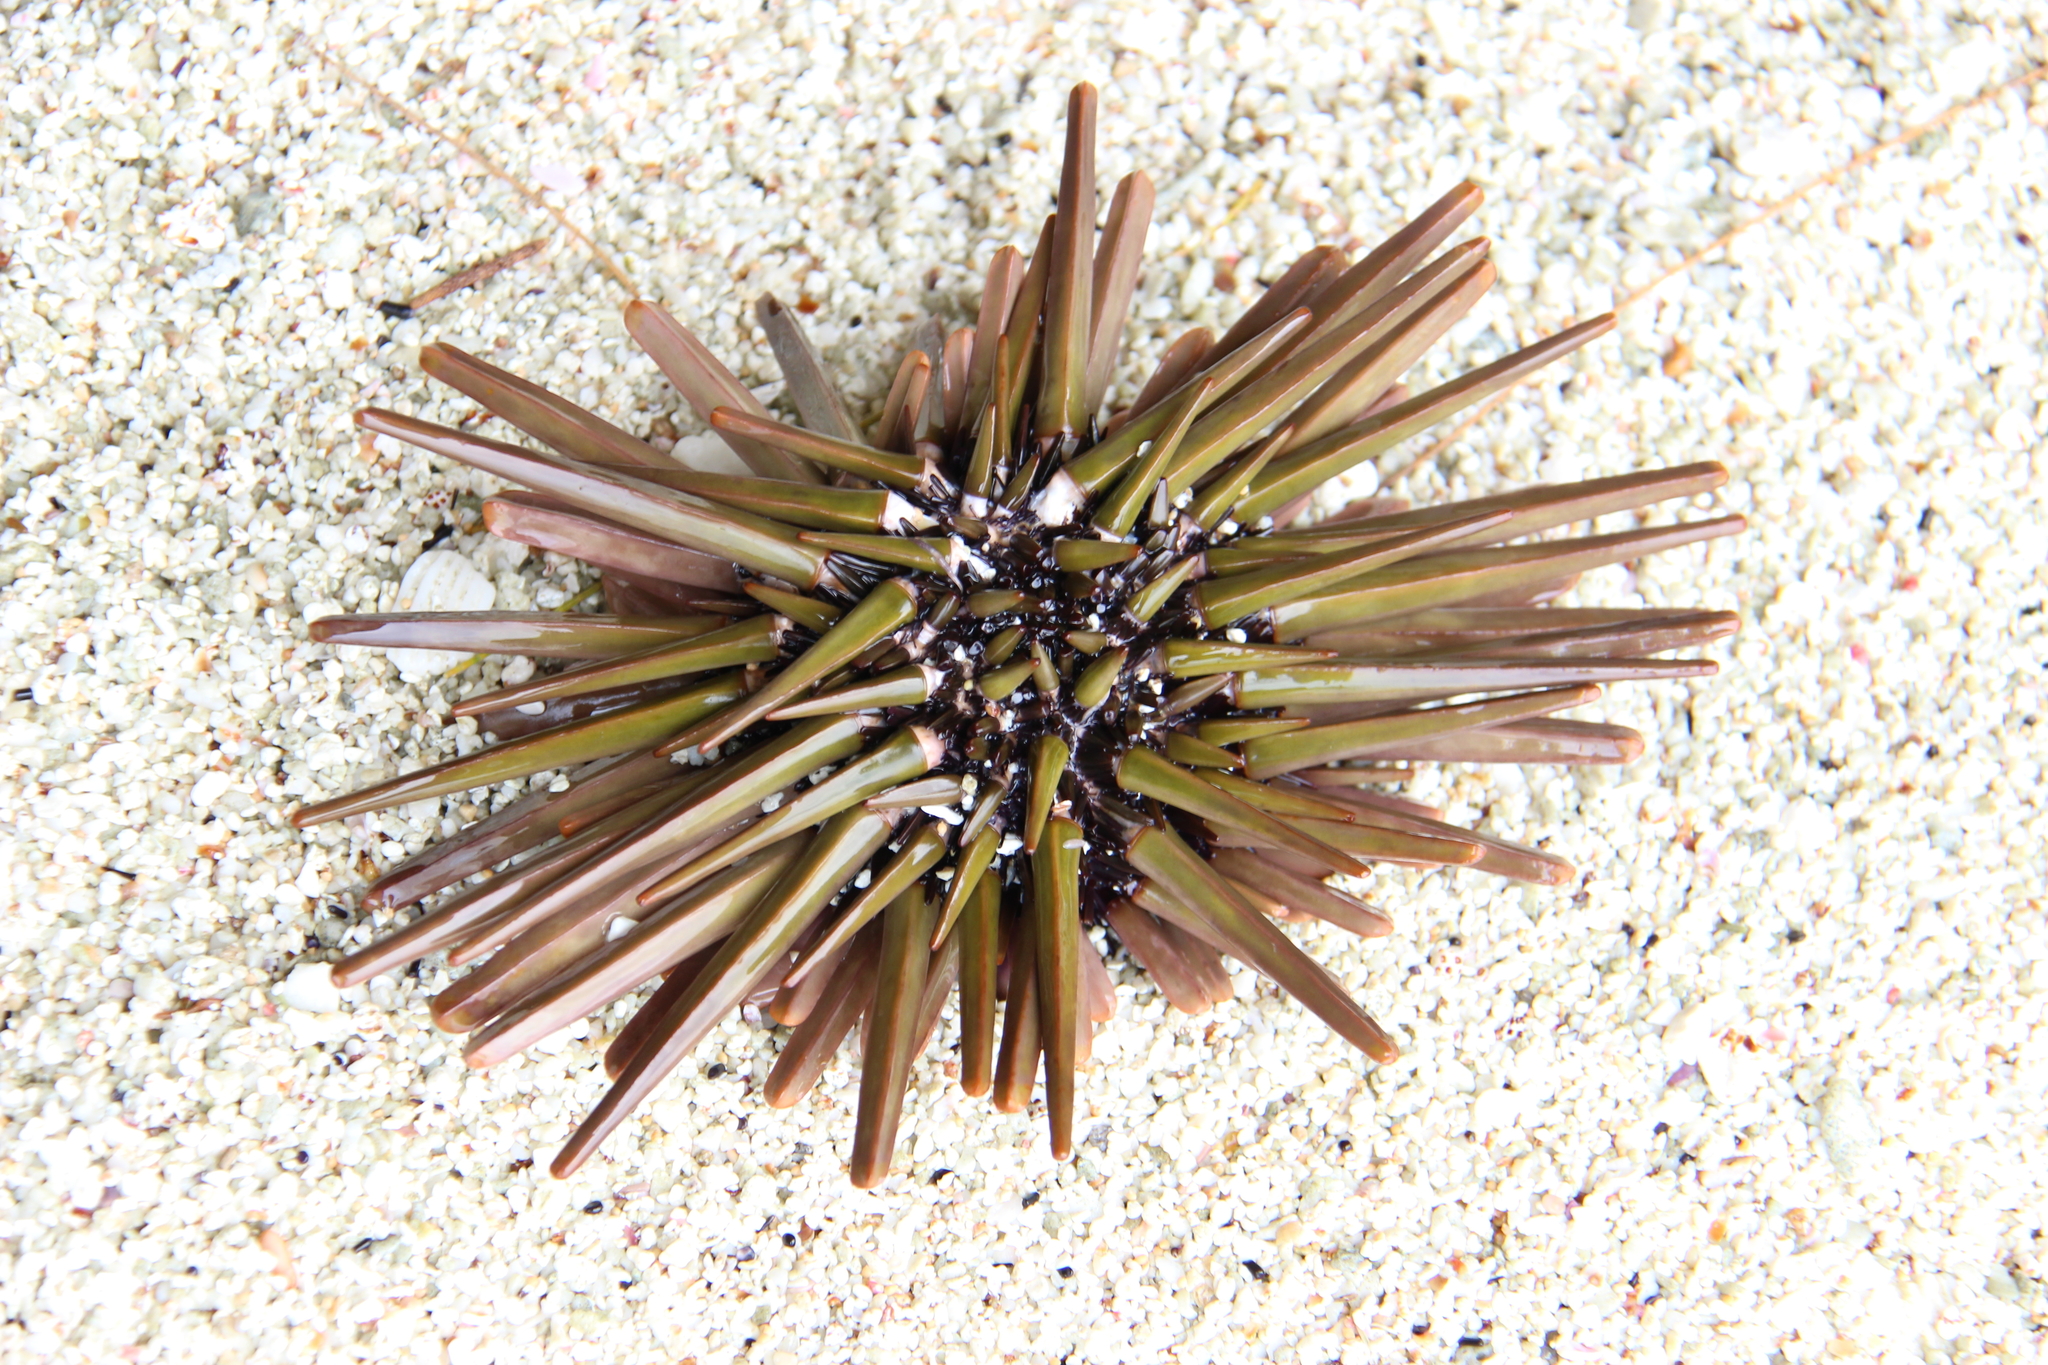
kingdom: Animalia
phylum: Echinodermata
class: Echinoidea
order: Camarodonta
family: Echinometridae
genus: Heterocentrotus
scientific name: Heterocentrotus trigonarius
